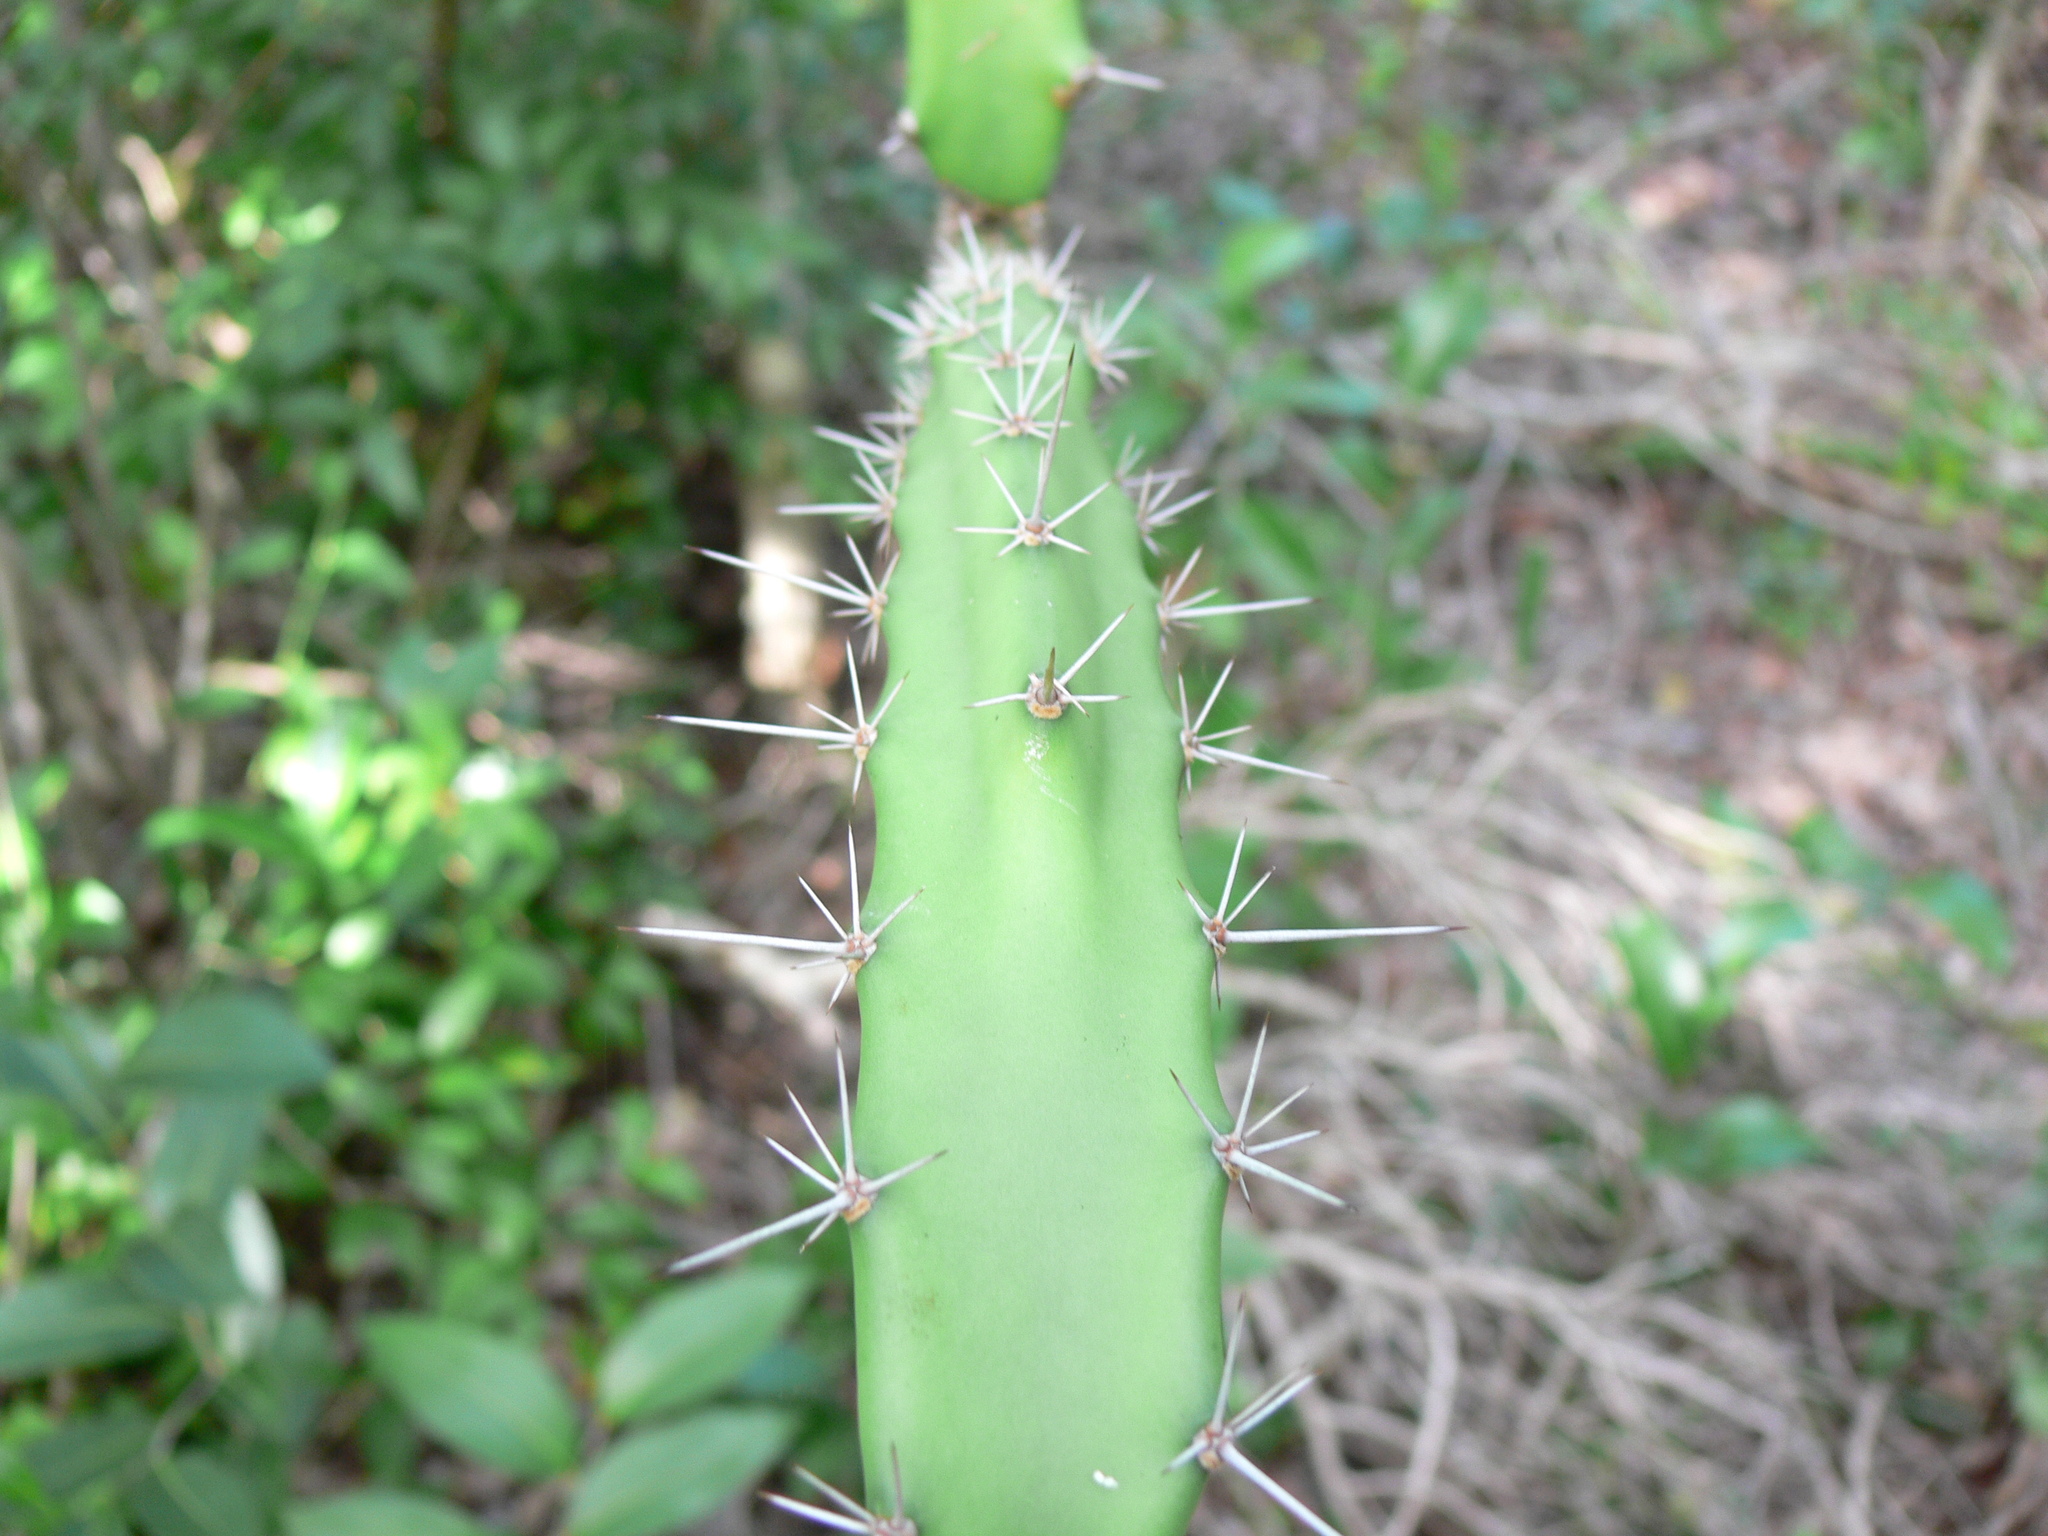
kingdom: Plantae
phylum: Tracheophyta
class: Magnoliopsida
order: Caryophyllales
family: Cactaceae
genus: Acanthocereus
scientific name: Acanthocereus tetragonus
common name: Triangle cactus
